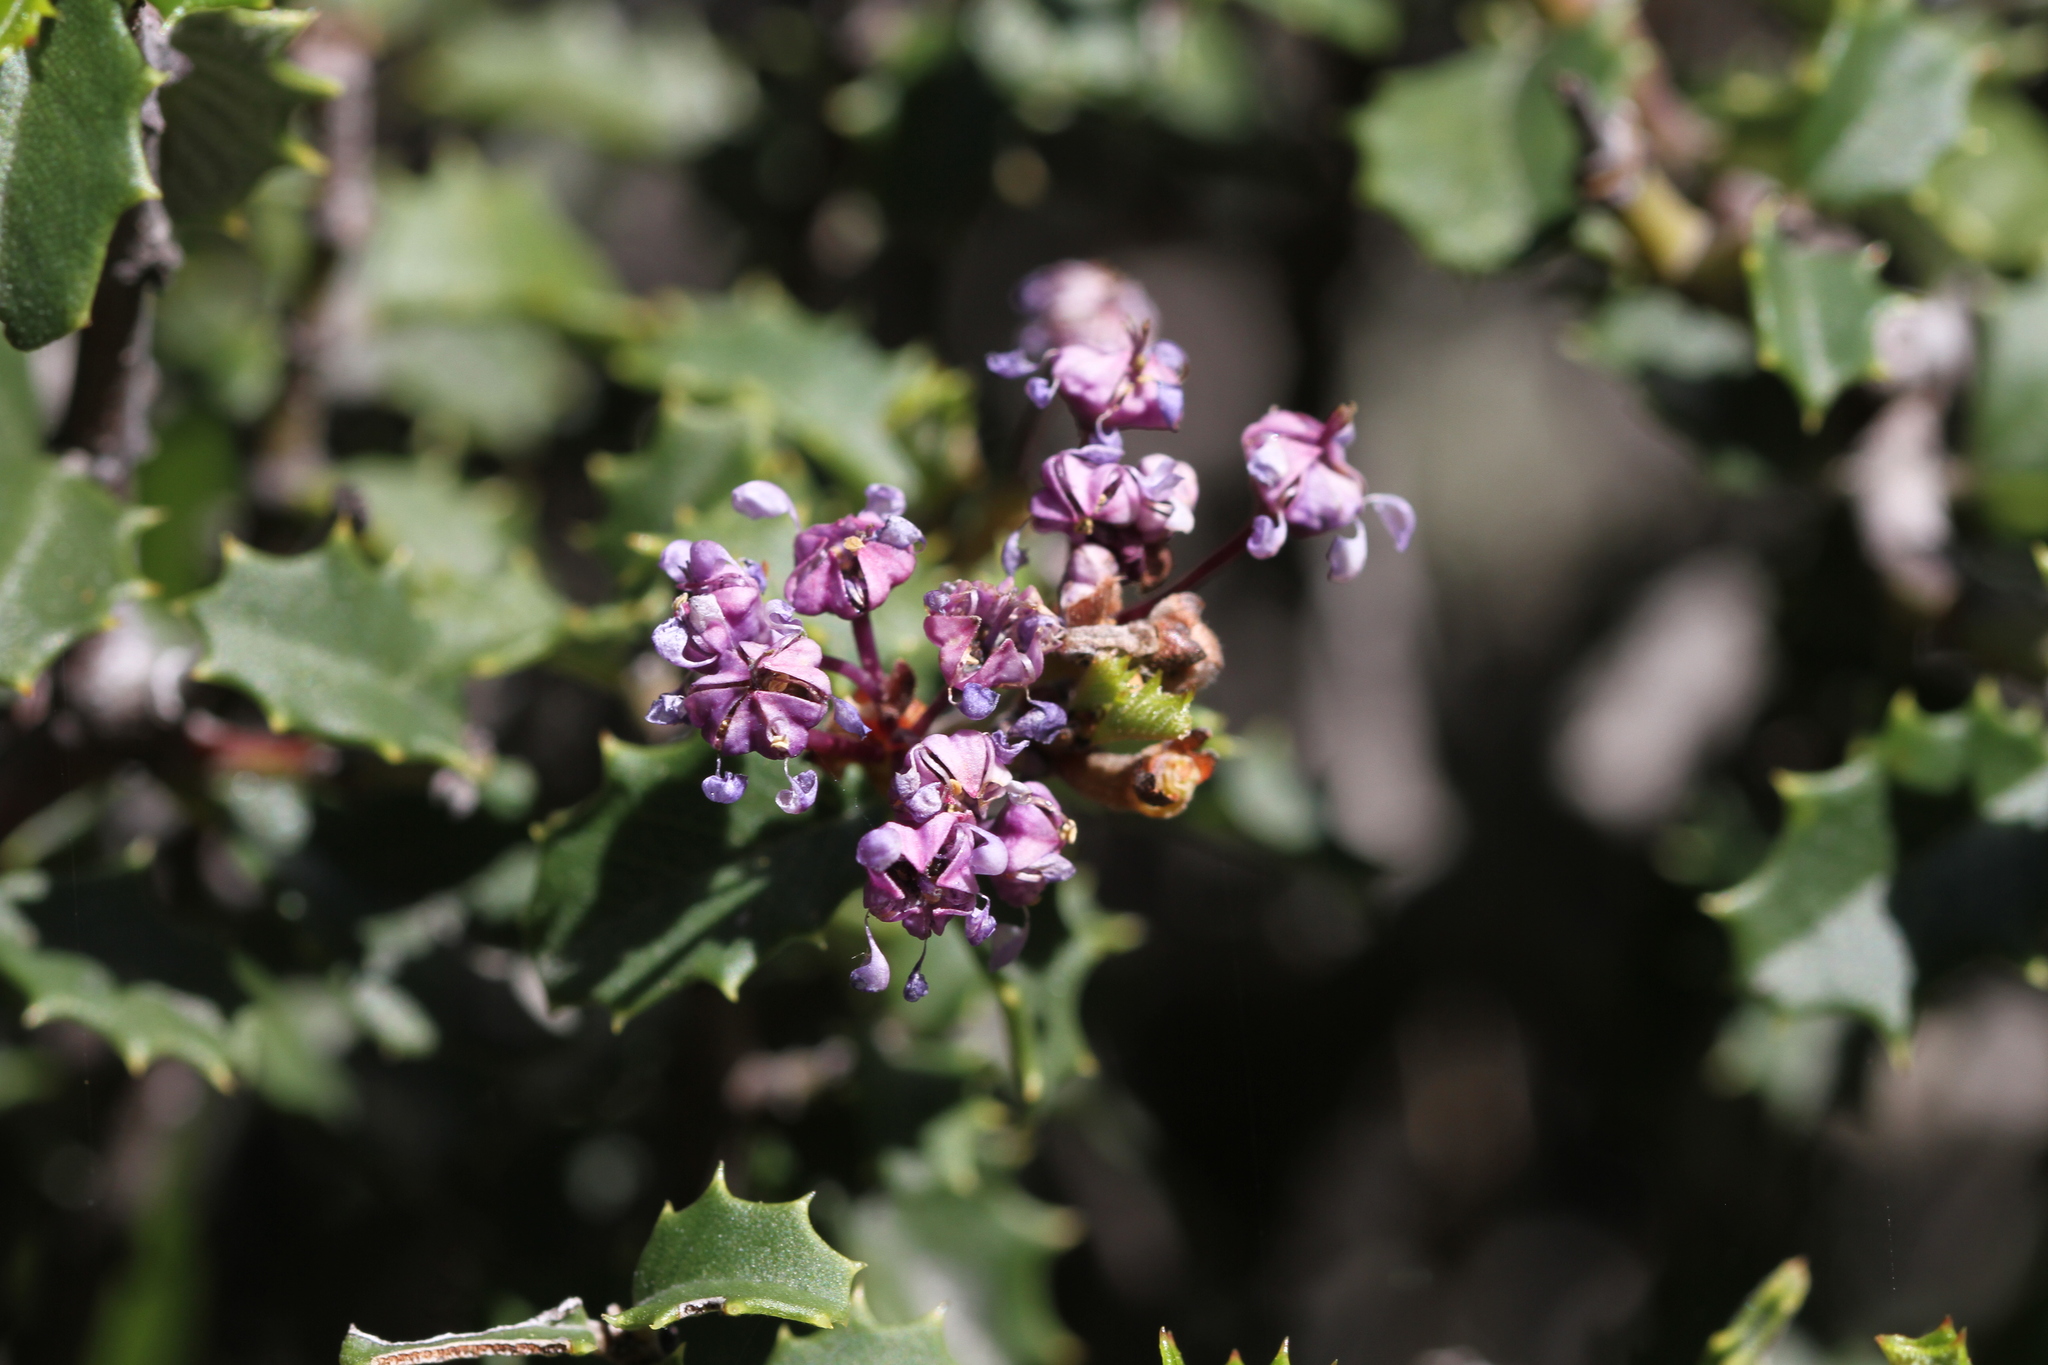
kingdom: Plantae
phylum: Tracheophyta
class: Magnoliopsida
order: Rosales
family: Rhamnaceae
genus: Ceanothus
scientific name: Ceanothus jepsonii
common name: Muskbrush
